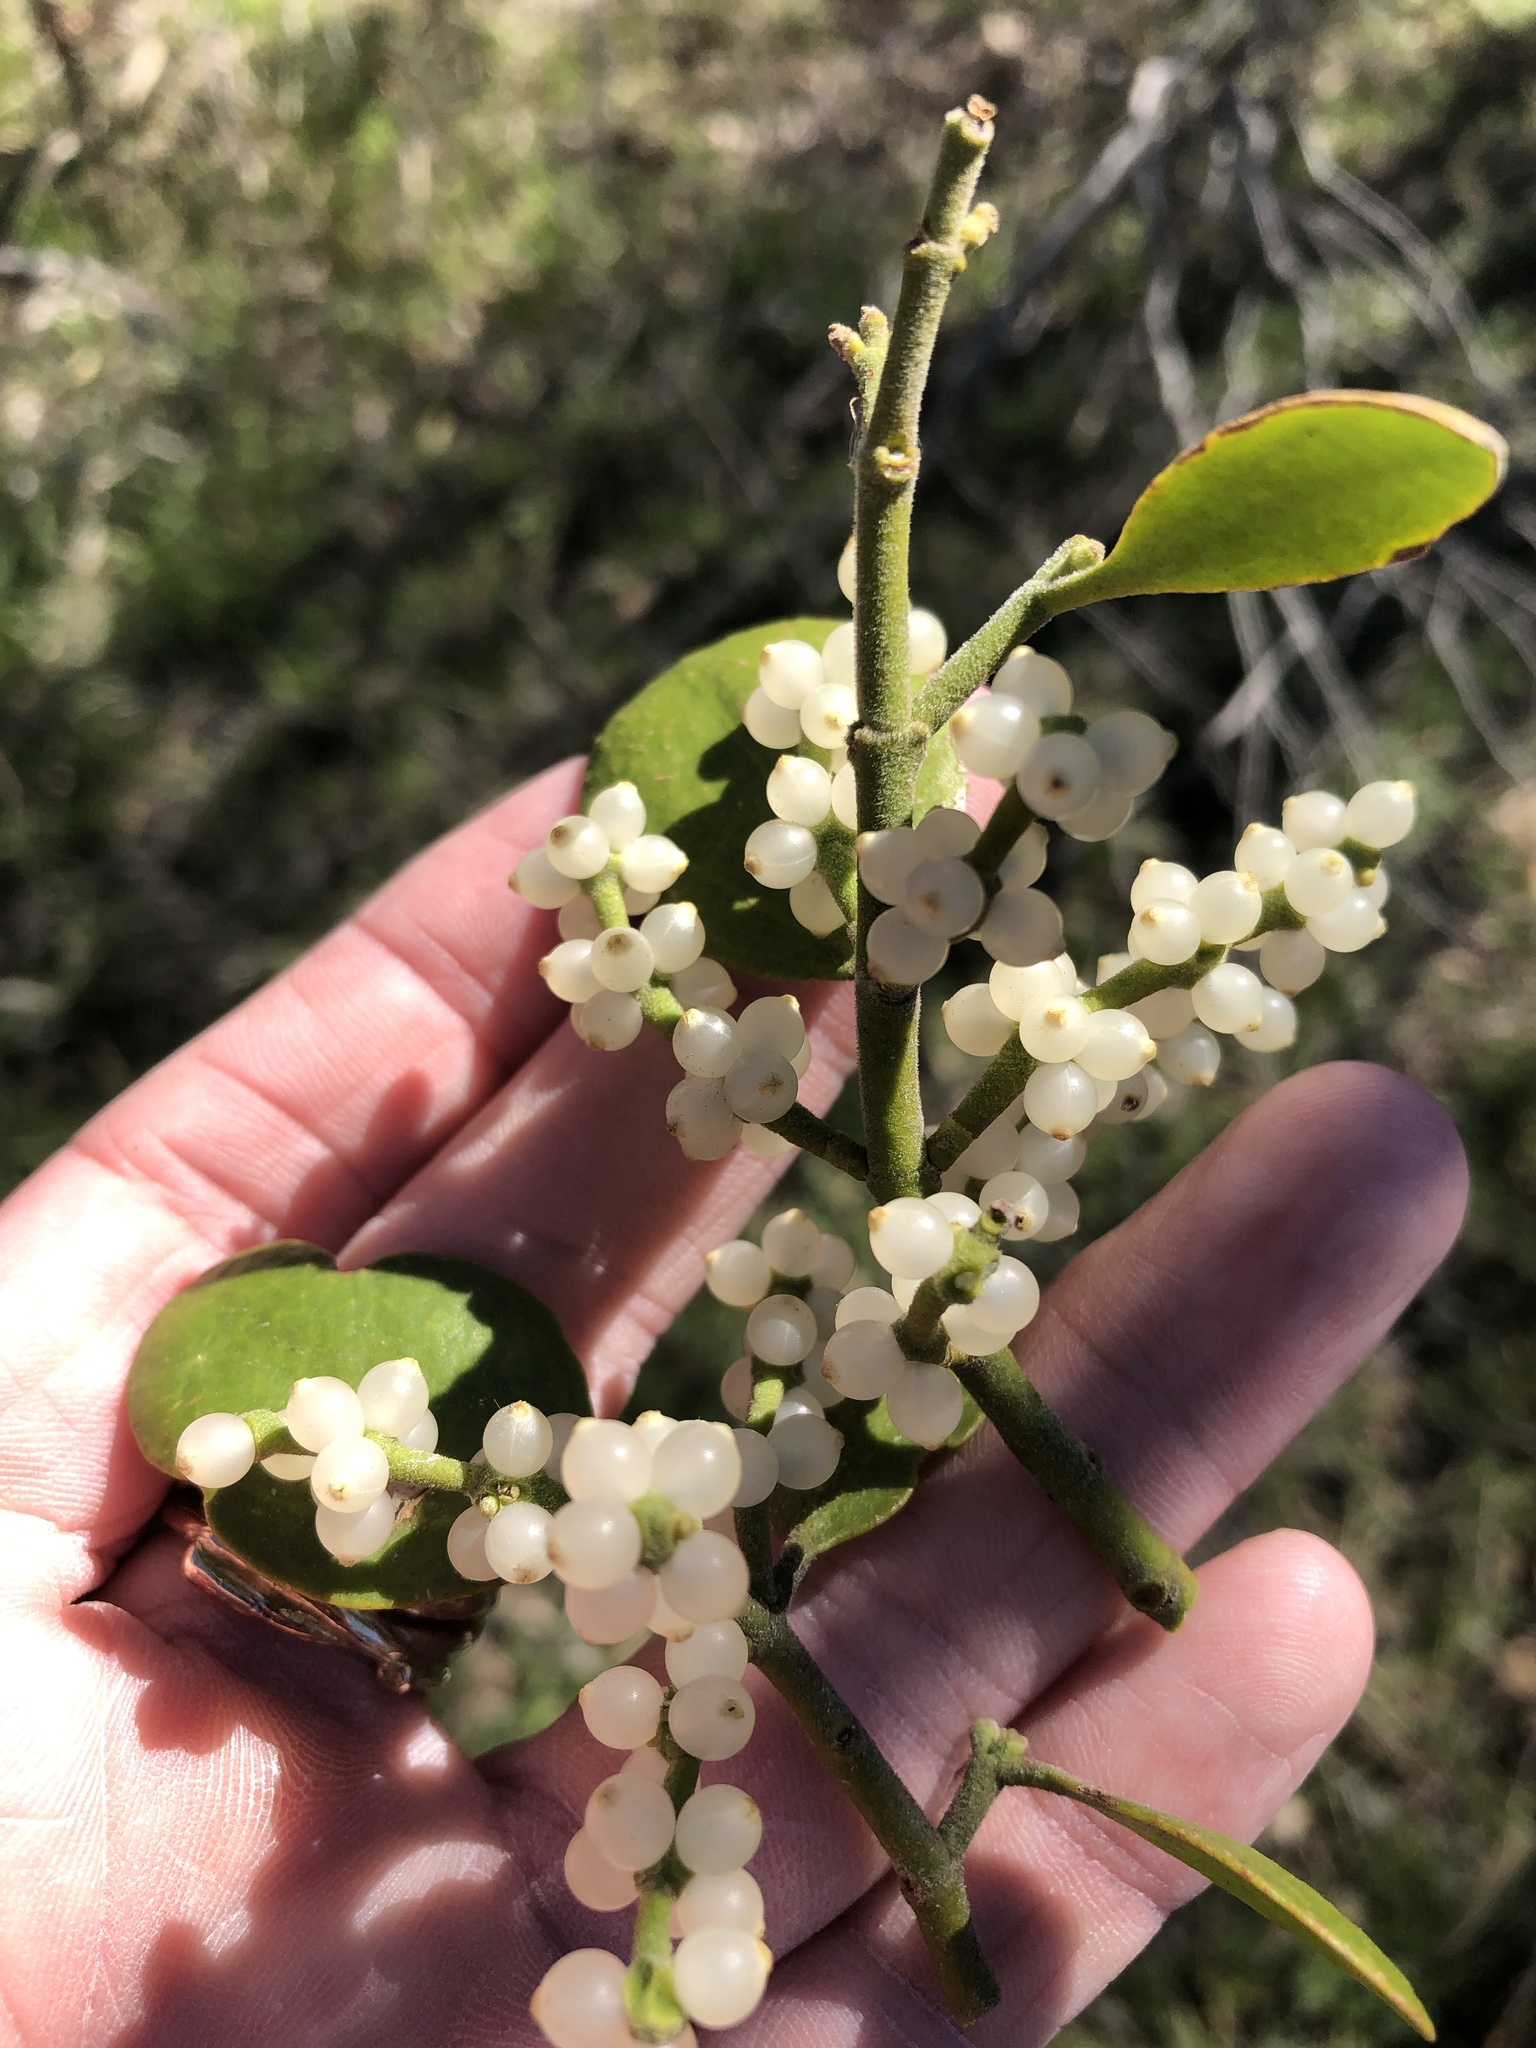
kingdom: Plantae
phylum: Tracheophyta
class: Magnoliopsida
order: Santalales
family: Viscaceae
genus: Phoradendron
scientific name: Phoradendron leucarpum
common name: Pacific mistletoe
